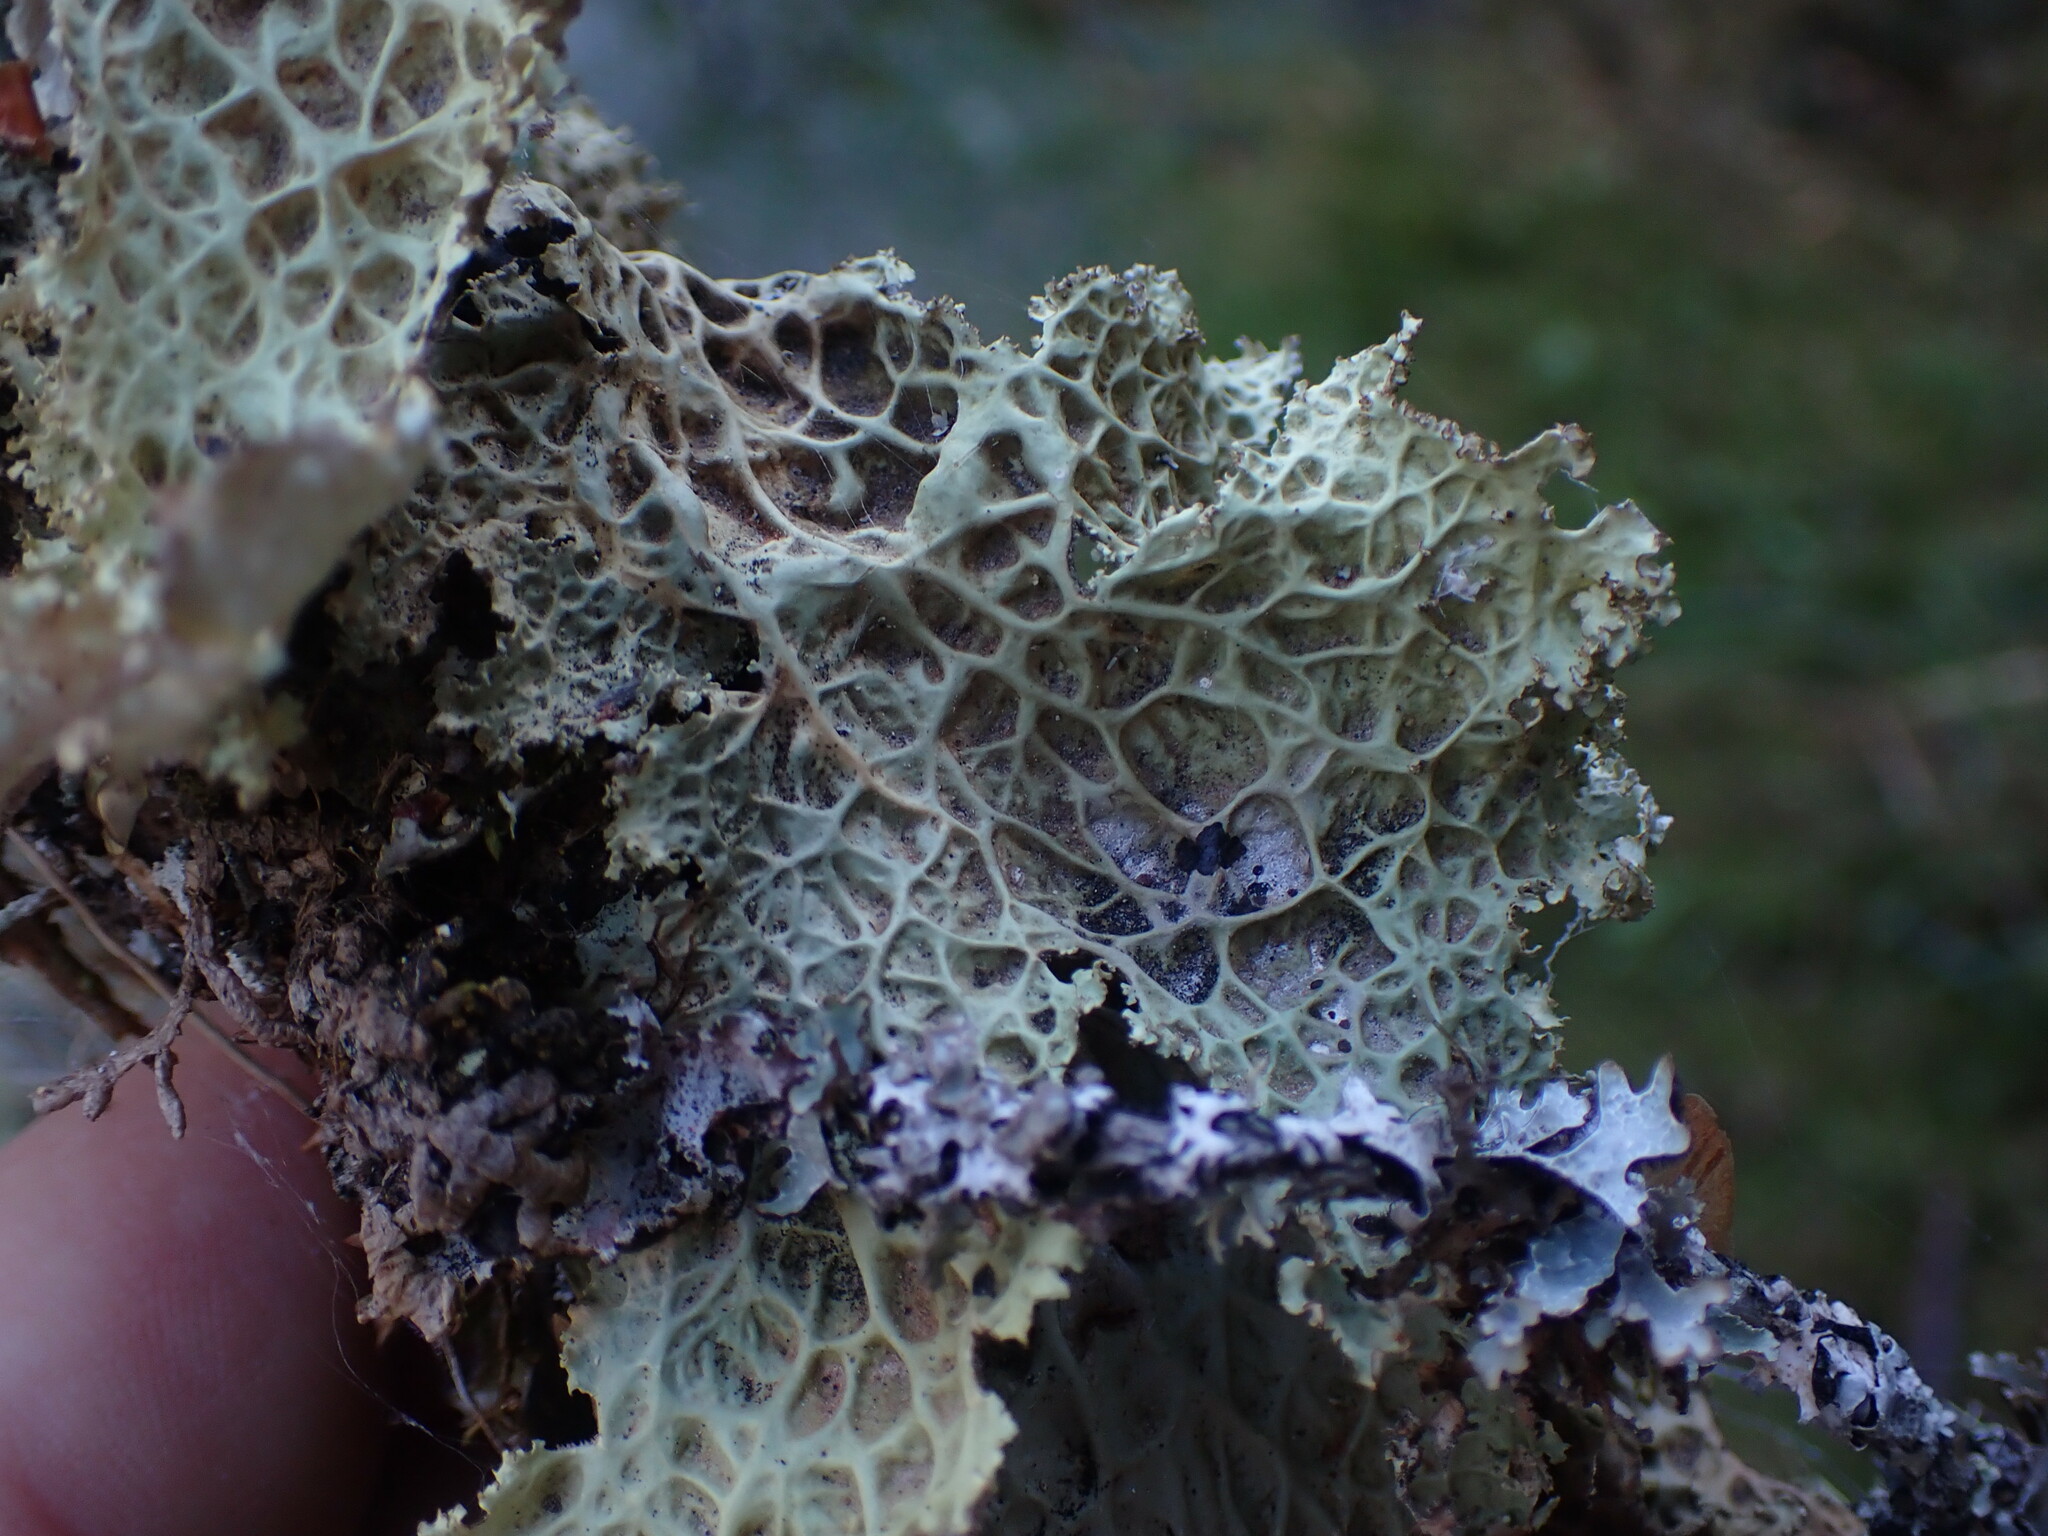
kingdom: Fungi
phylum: Ascomycota
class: Lecanoromycetes
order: Peltigerales
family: Lobariaceae
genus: Lobaria
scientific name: Lobaria oregana
